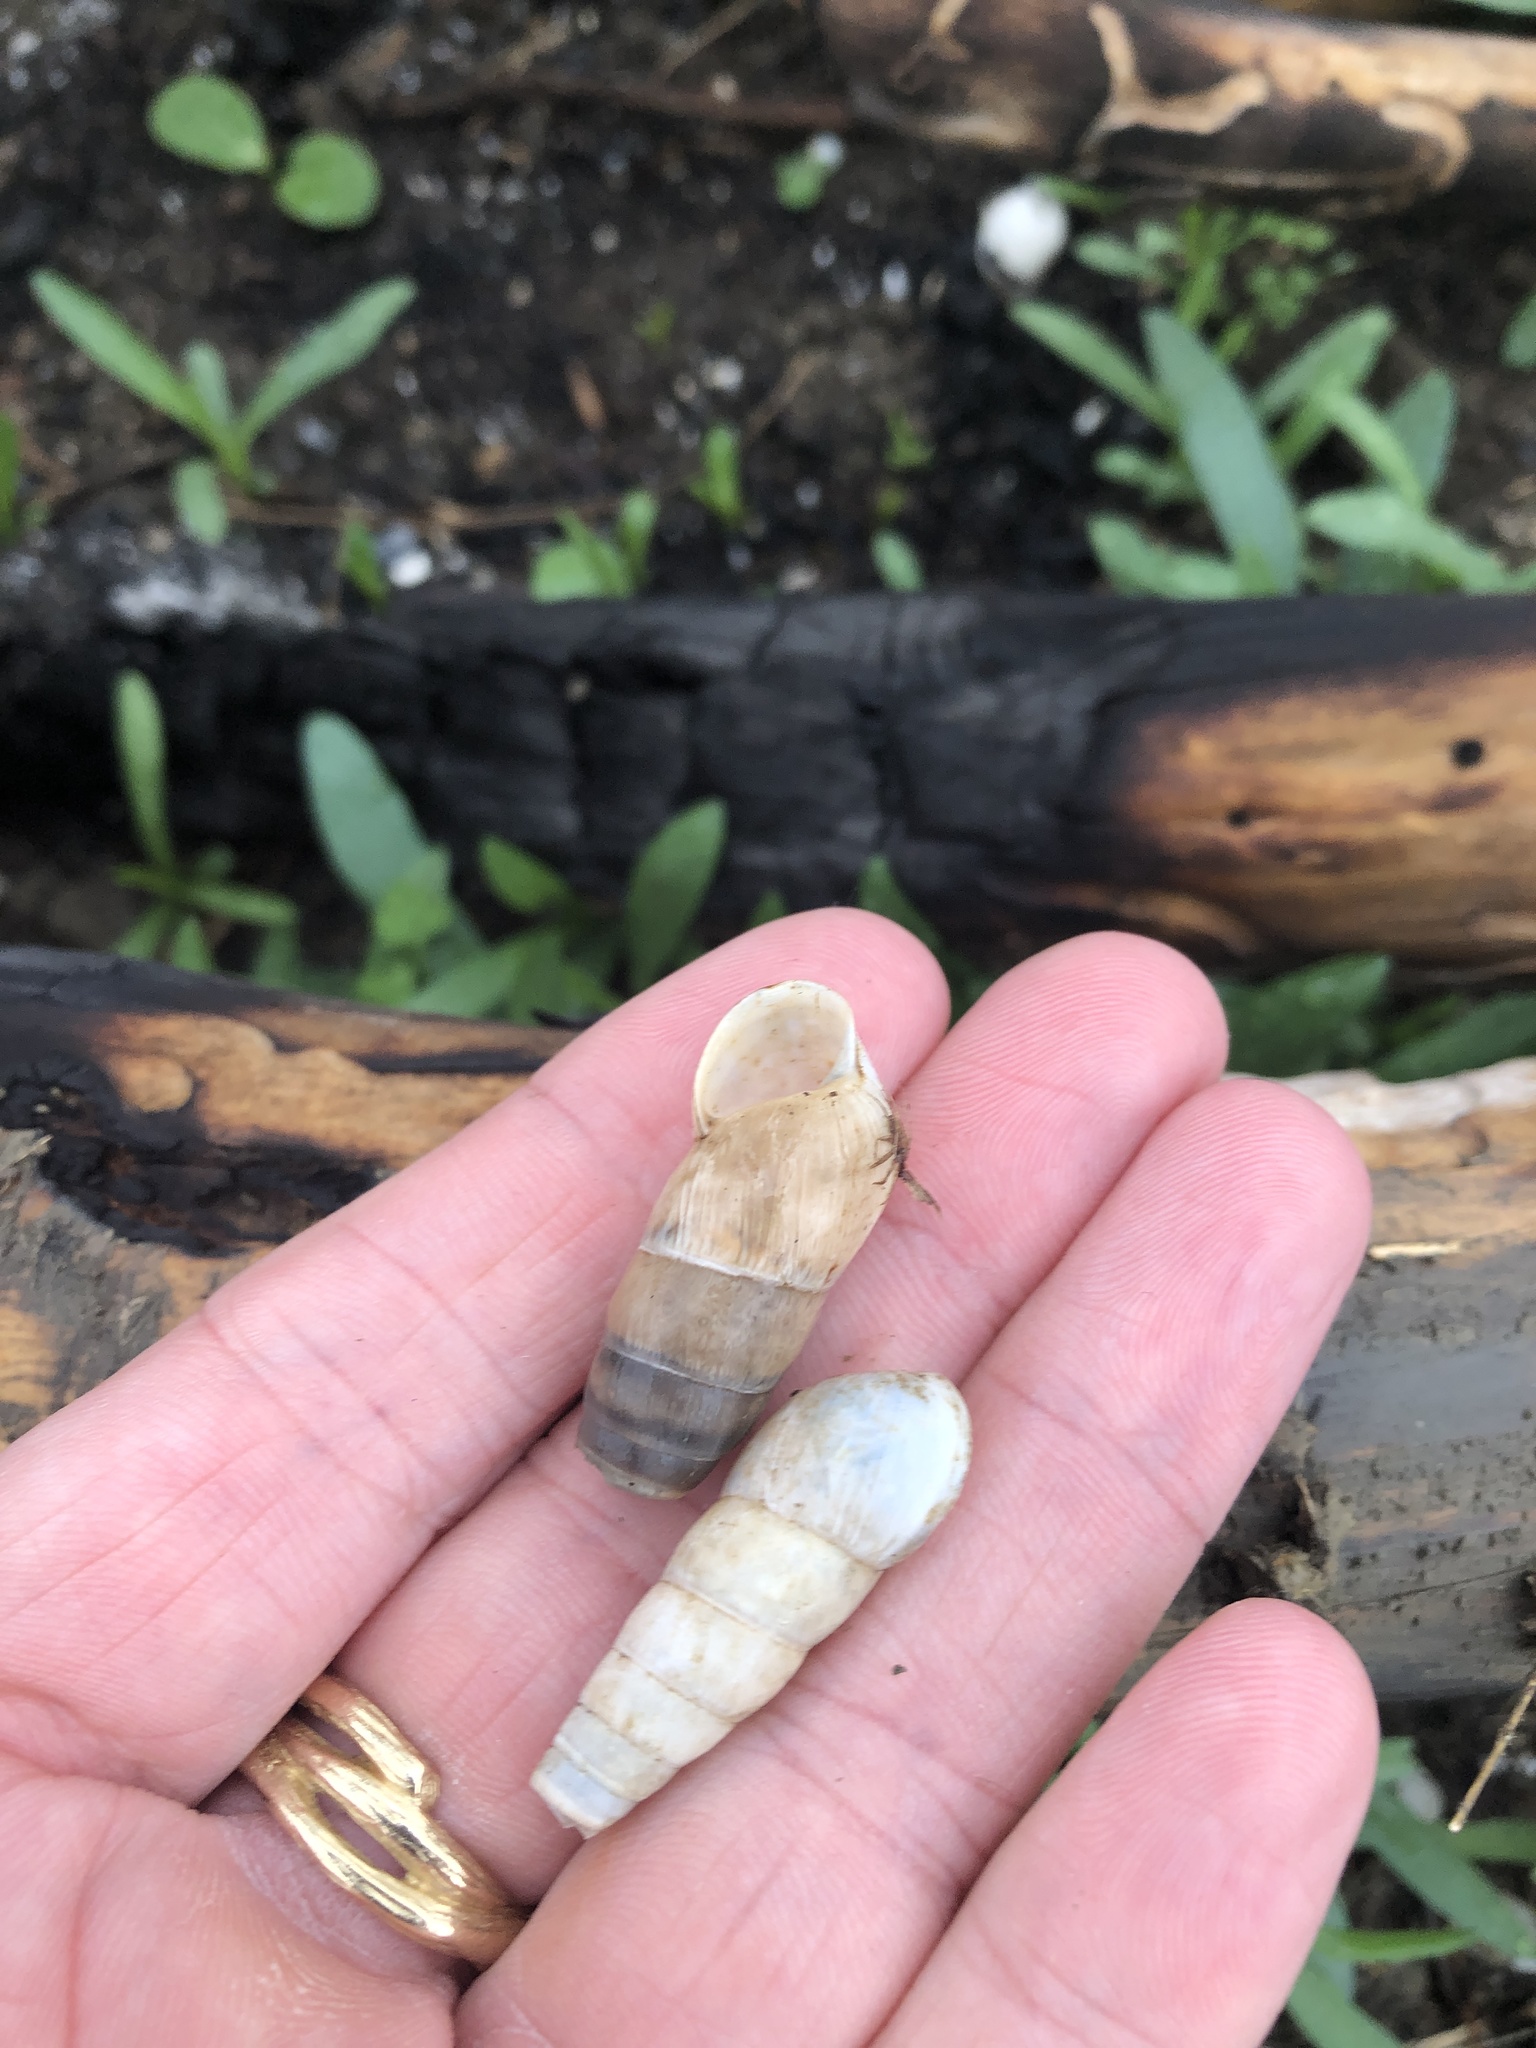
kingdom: Animalia
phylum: Mollusca
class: Gastropoda
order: Stylommatophora
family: Achatinidae
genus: Rumina
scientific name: Rumina decollata
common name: Decollate snail
